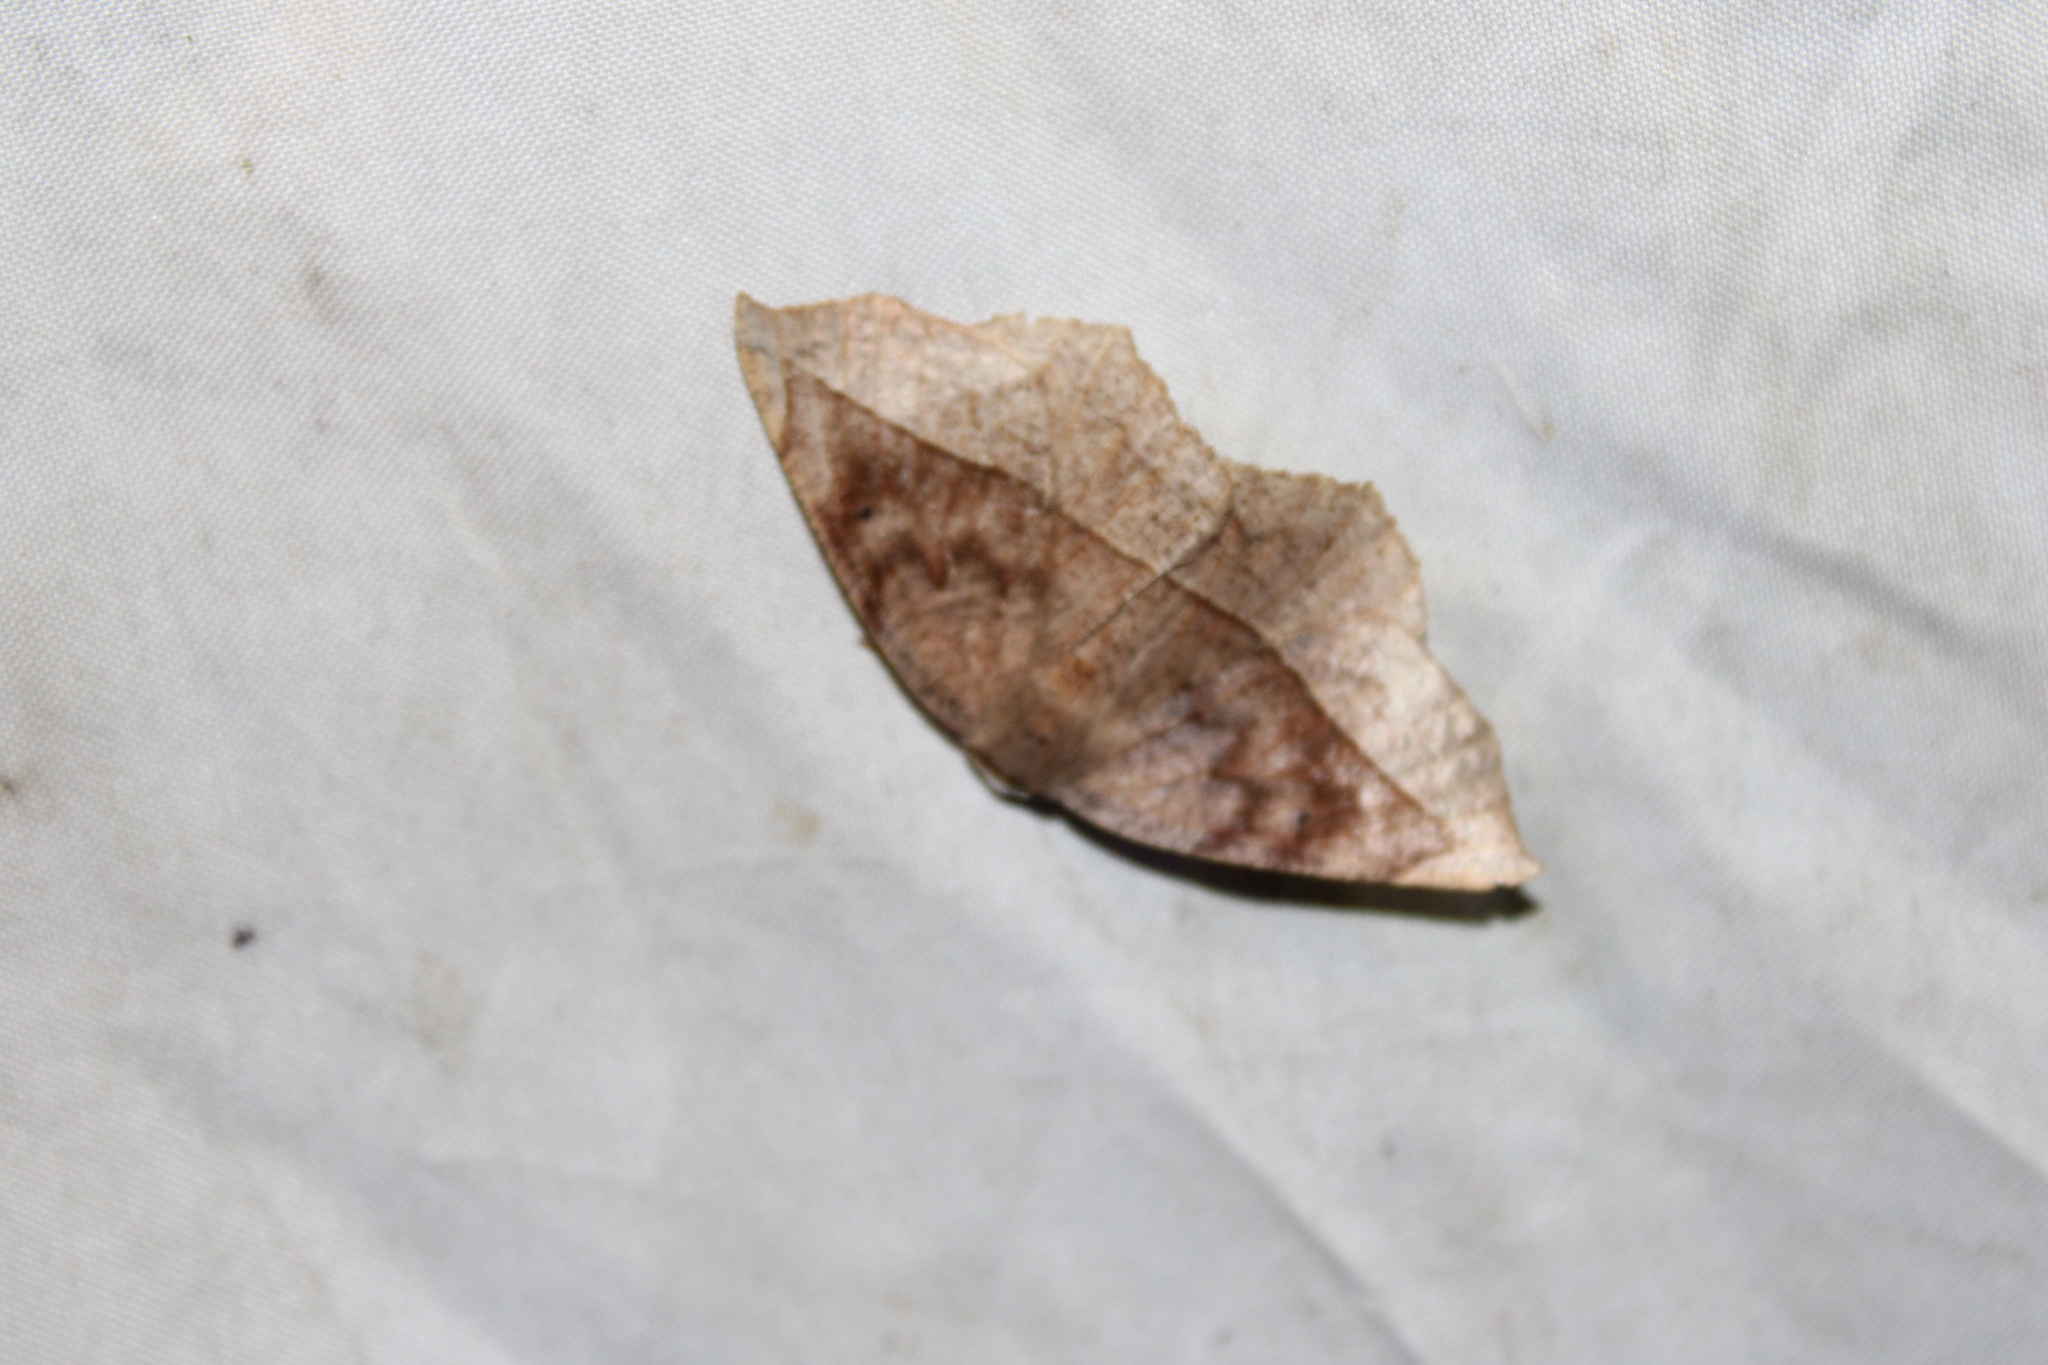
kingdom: Animalia
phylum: Arthropoda
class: Insecta
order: Lepidoptera
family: Geometridae
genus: Eutrapela
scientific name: Eutrapela clemataria
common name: Curved-toothed geometer
